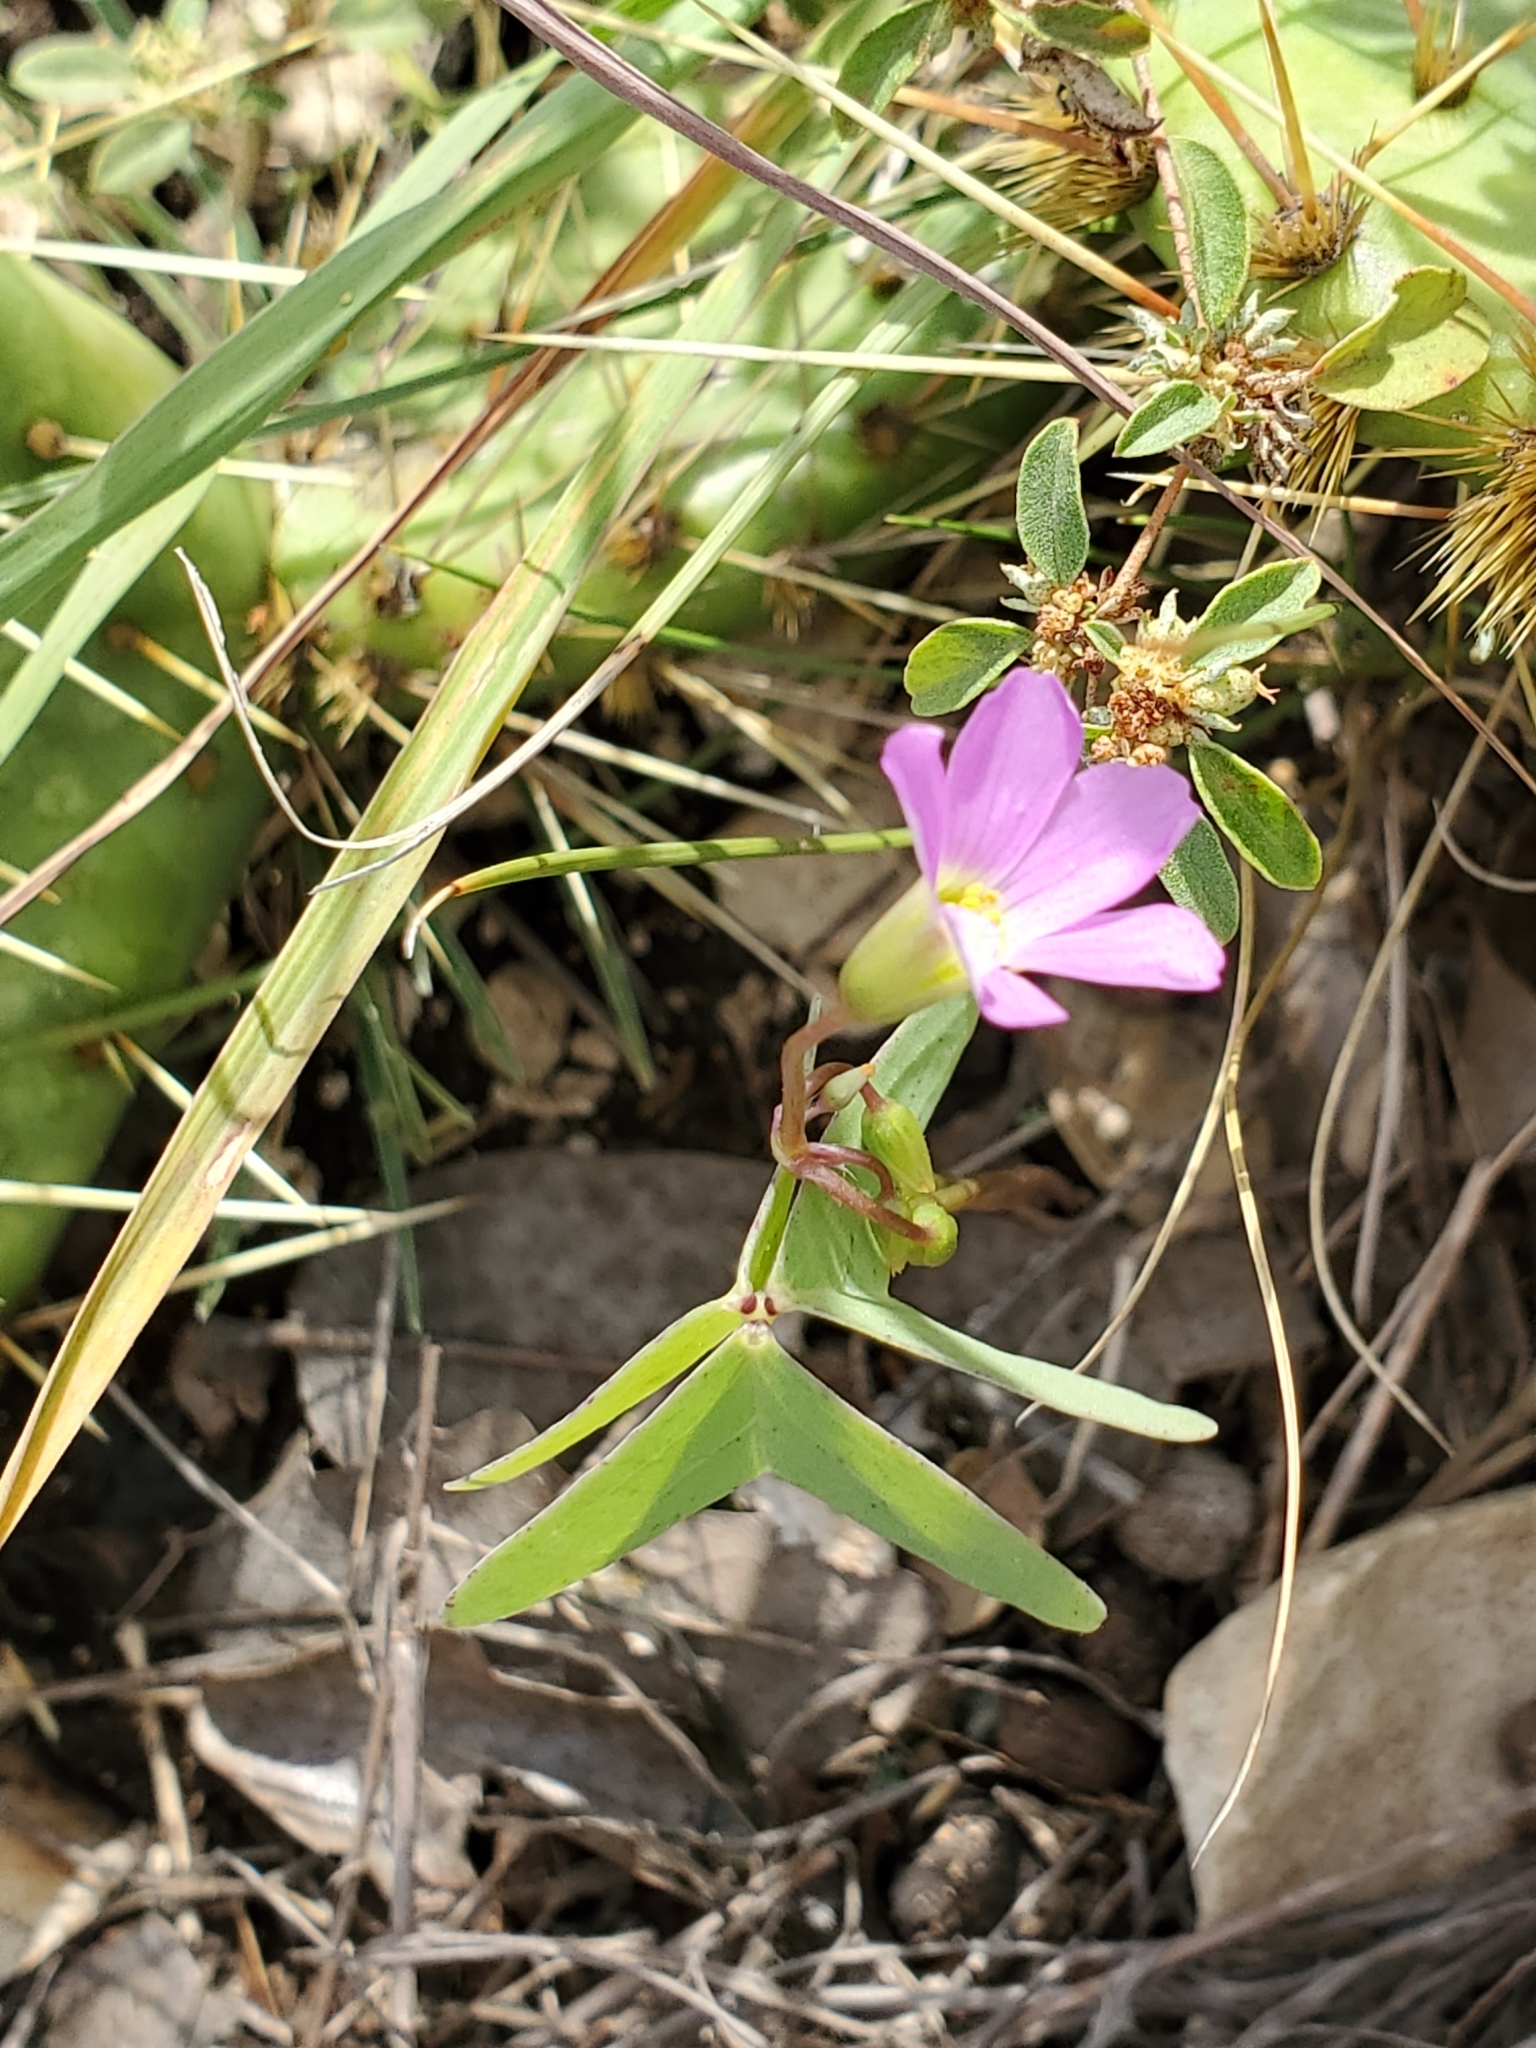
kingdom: Plantae
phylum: Tracheophyta
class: Magnoliopsida
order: Oxalidales
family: Oxalidaceae
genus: Oxalis
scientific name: Oxalis drummondii
